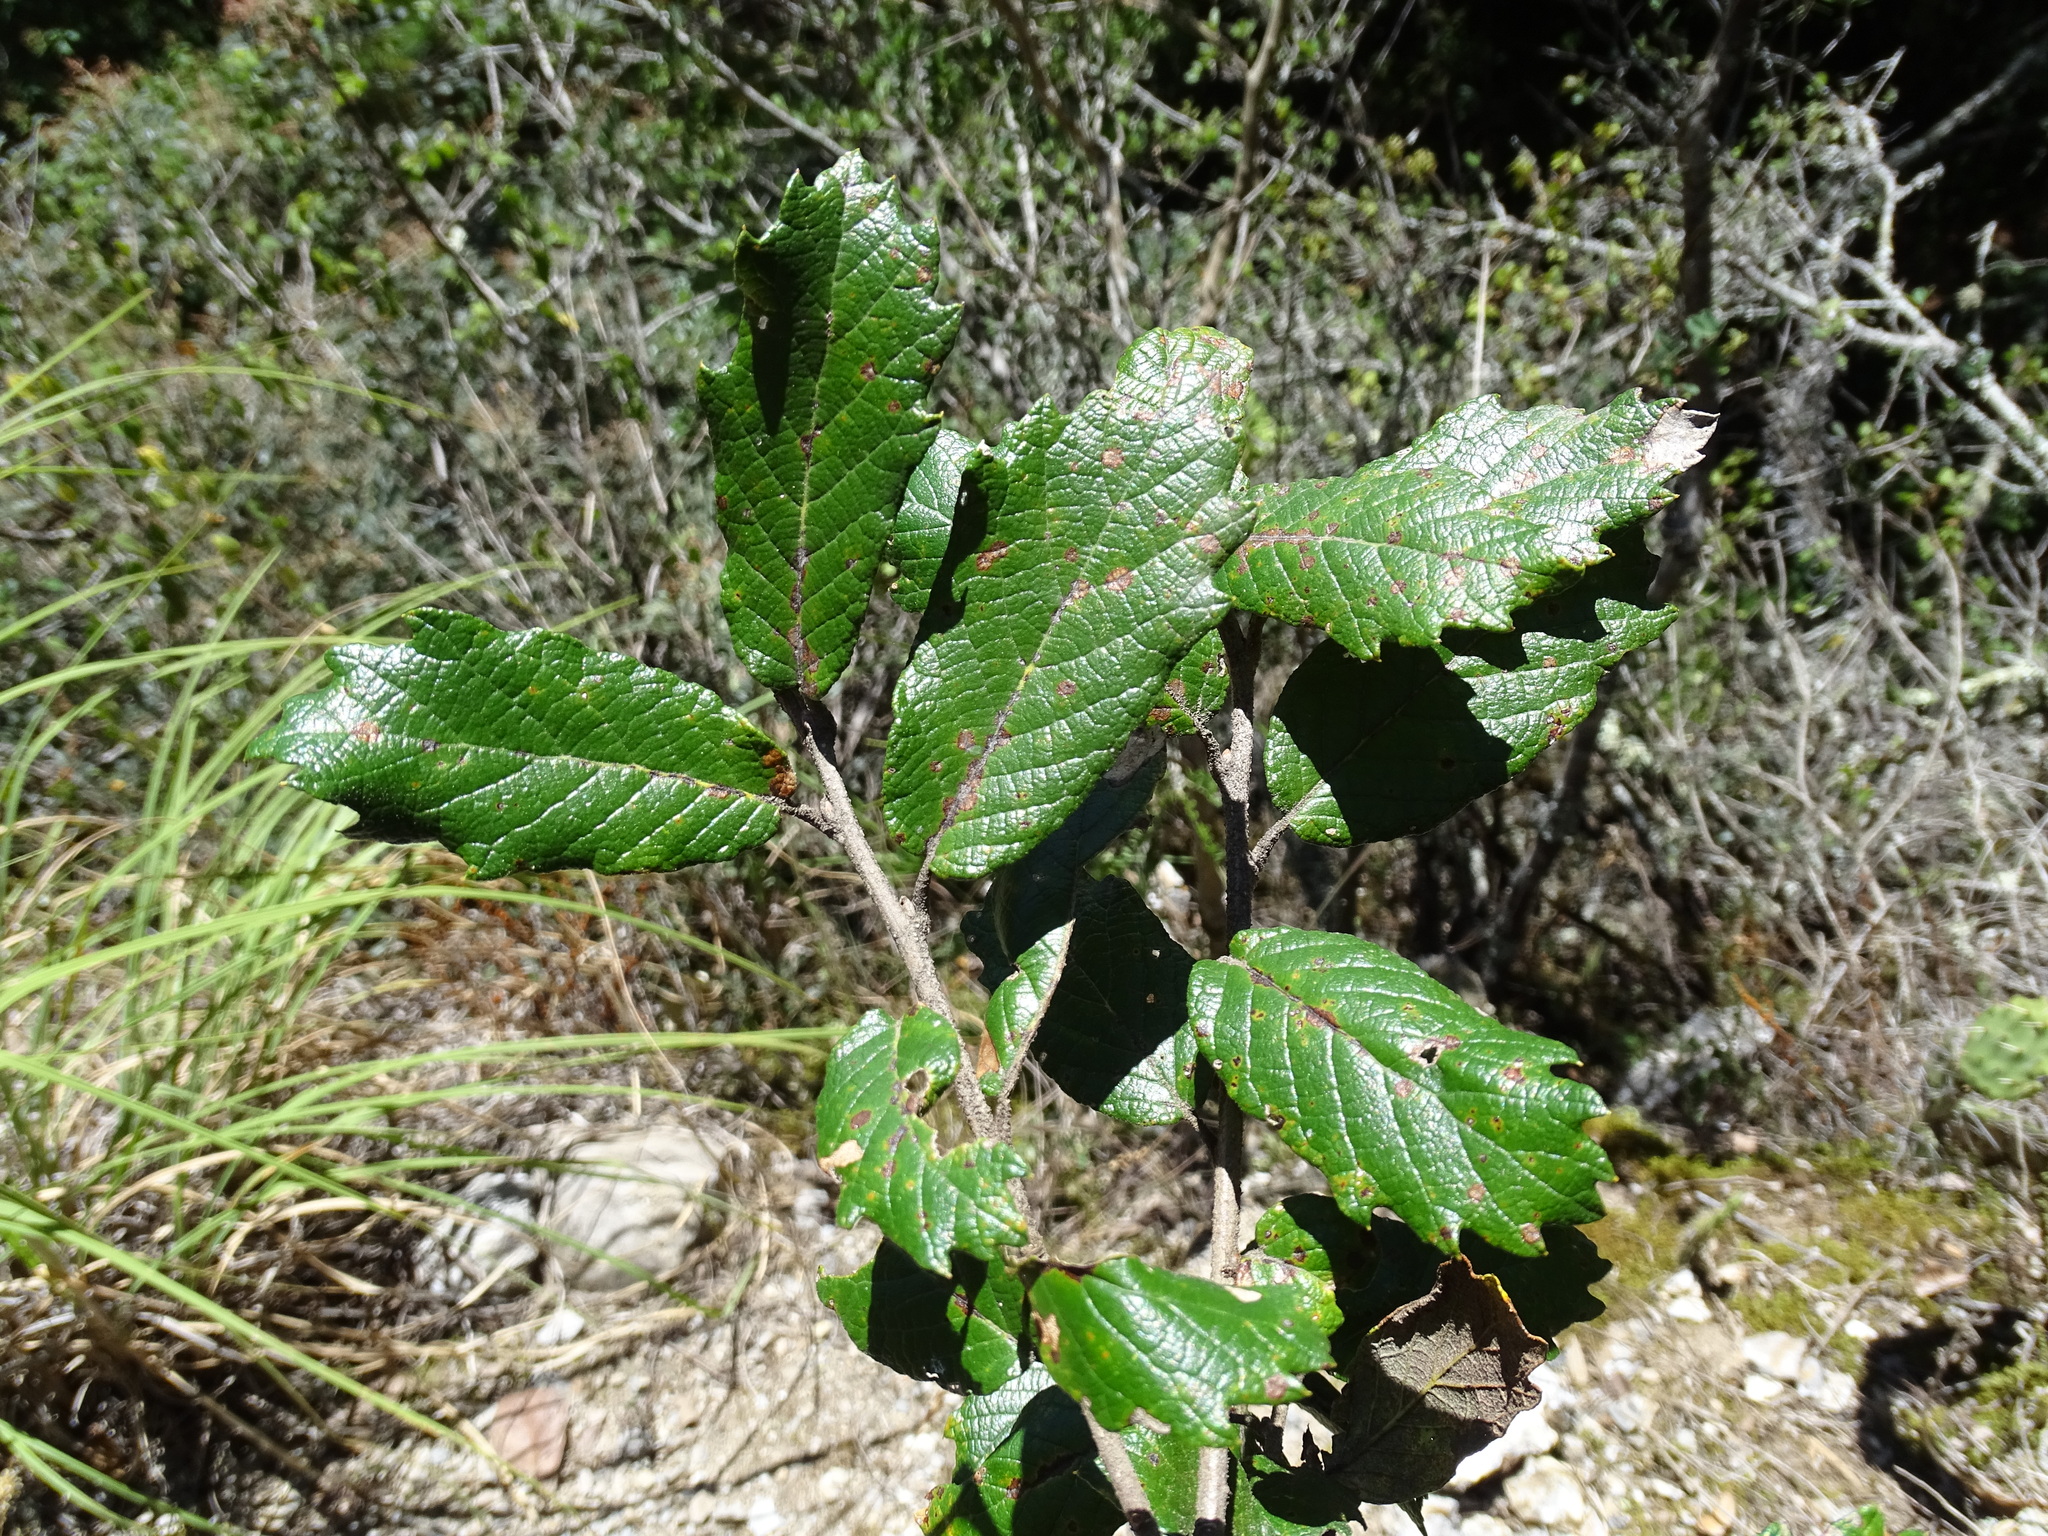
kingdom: Plantae
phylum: Tracheophyta
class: Magnoliopsida
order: Fagales
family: Fagaceae
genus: Quercus
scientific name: Quercus rugosa
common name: Netleaf oak
